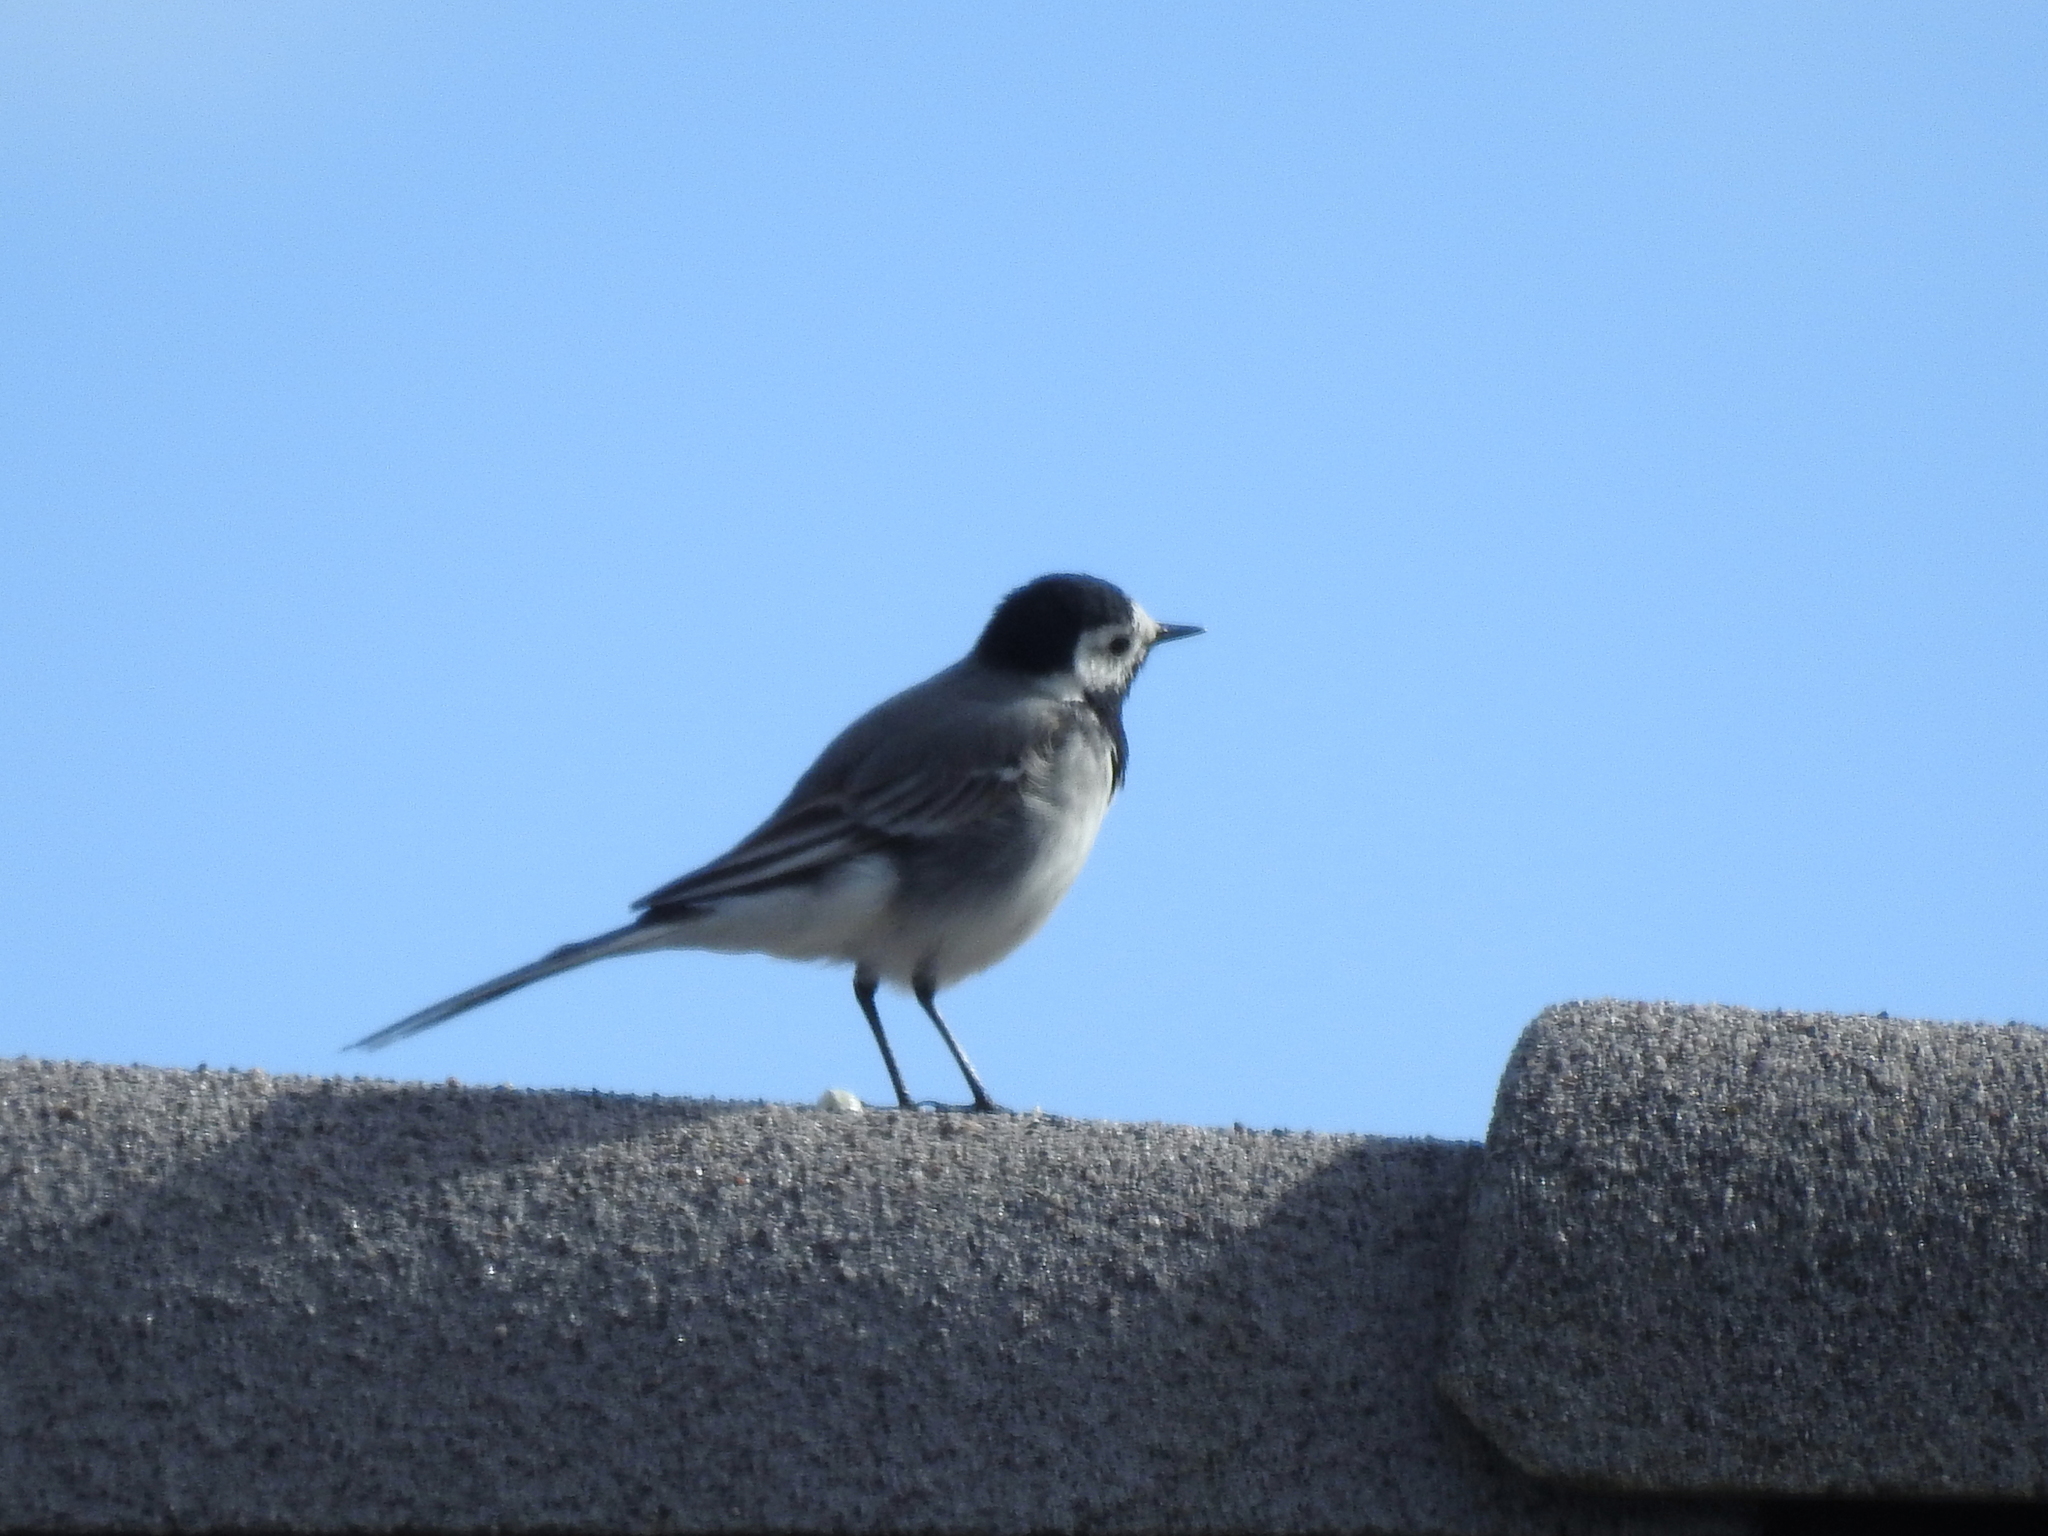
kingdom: Animalia
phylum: Chordata
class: Aves
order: Passeriformes
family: Motacillidae
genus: Motacilla
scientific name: Motacilla alba
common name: White wagtail
